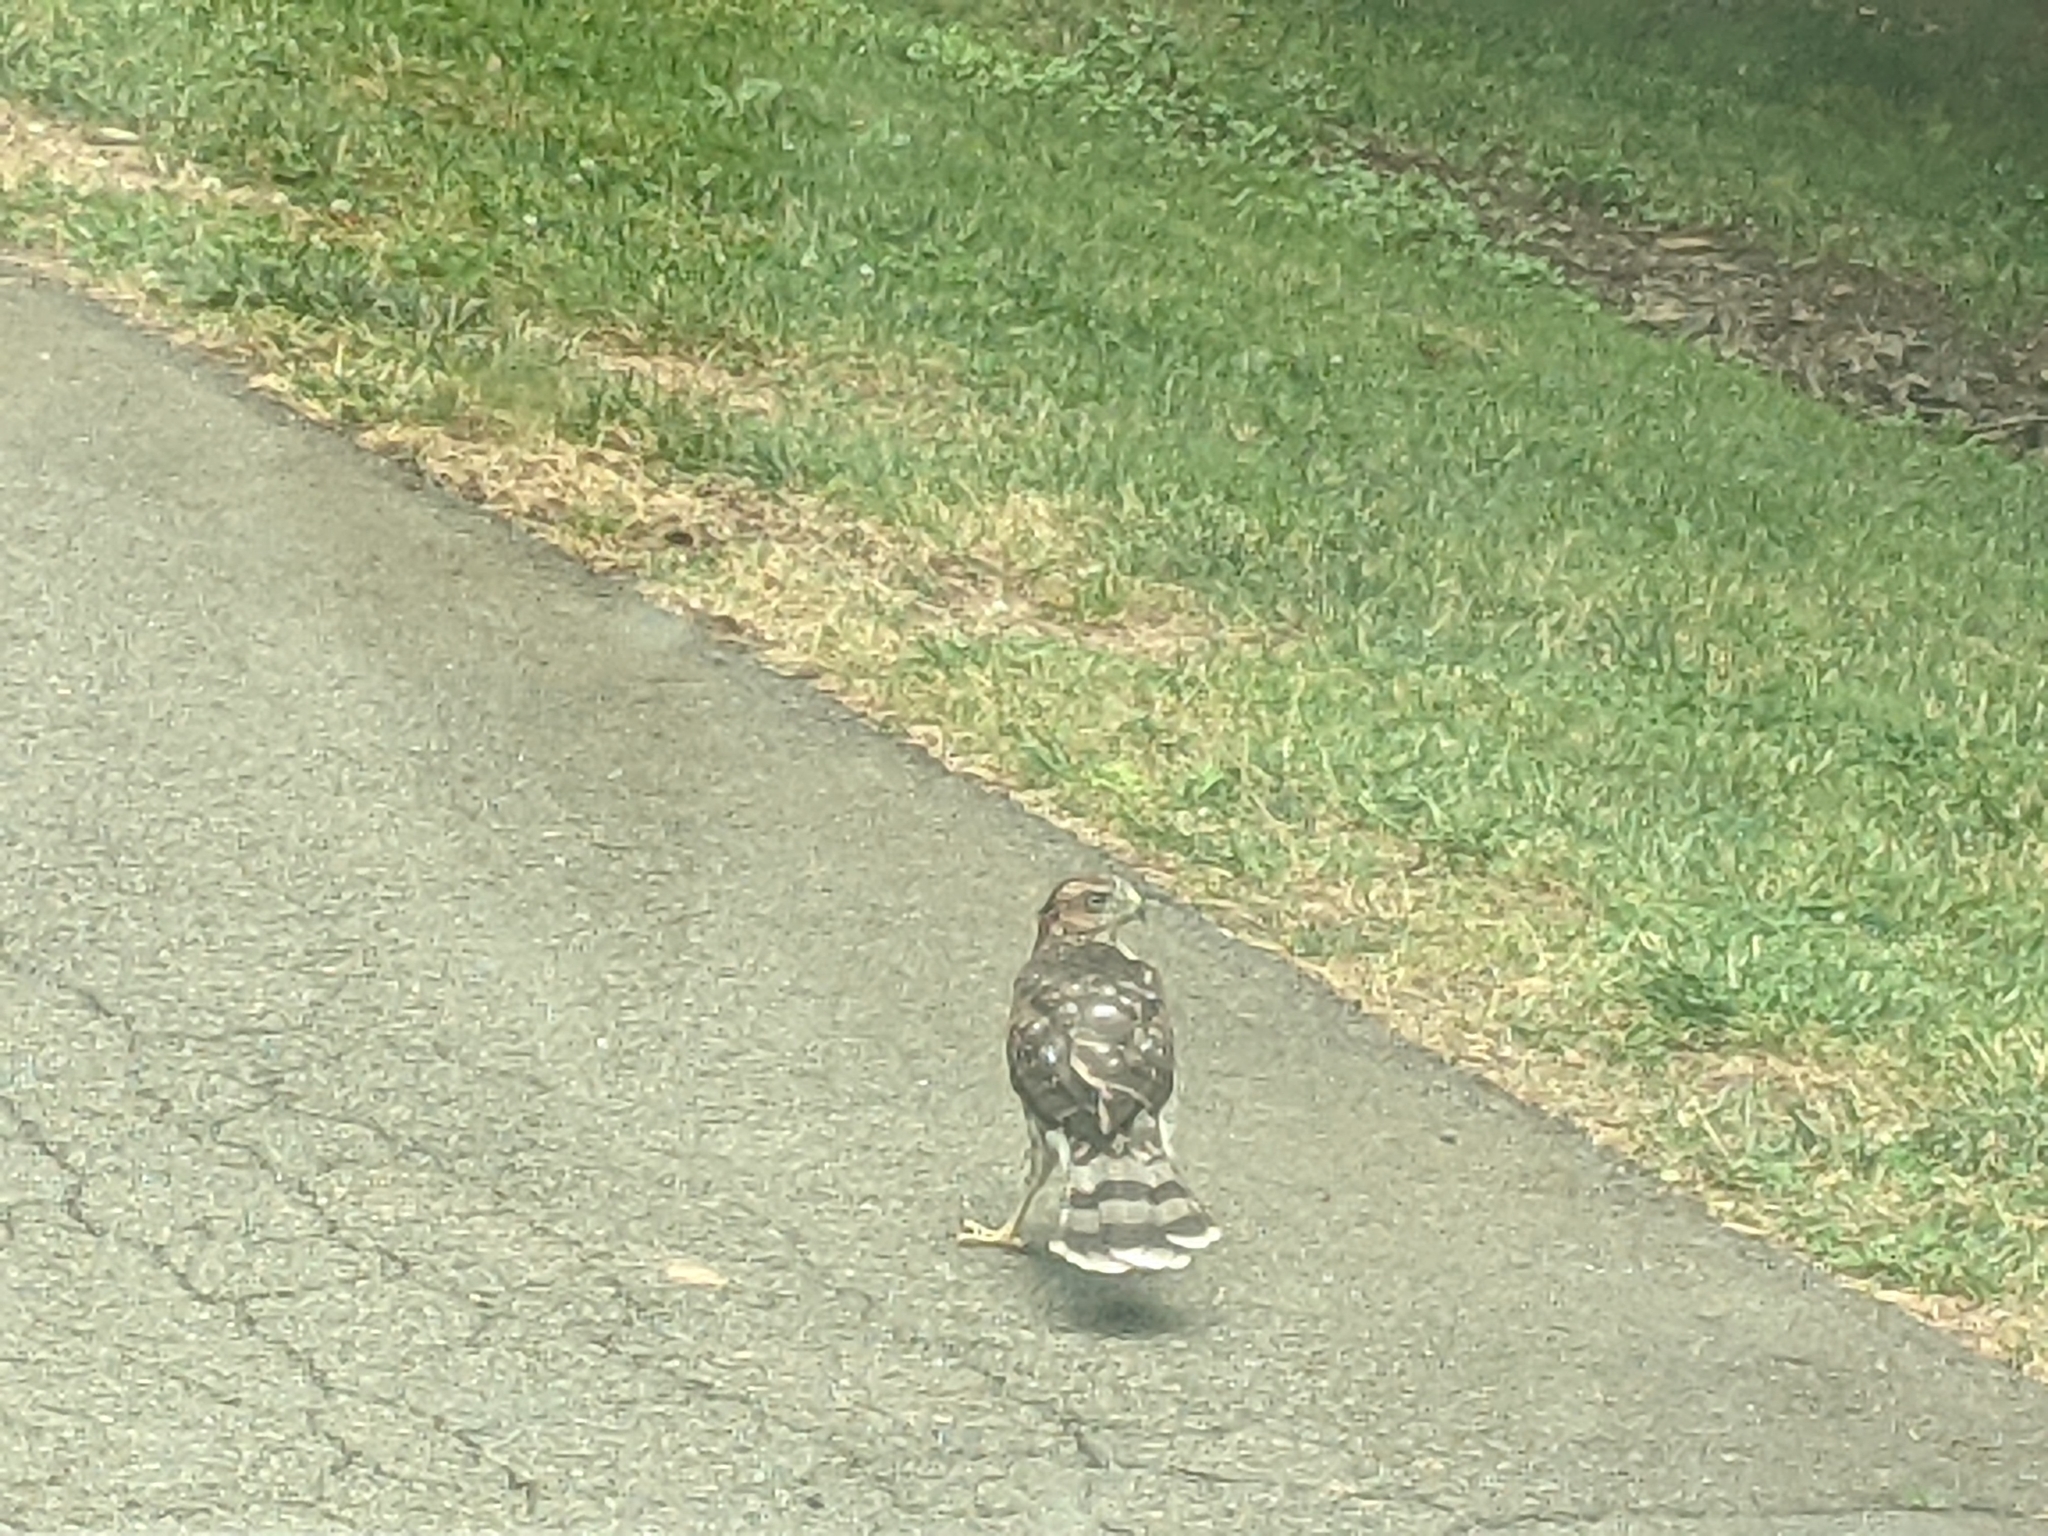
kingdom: Animalia
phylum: Chordata
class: Aves
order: Accipitriformes
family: Accipitridae
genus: Accipiter
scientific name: Accipiter cooperii
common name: Cooper's hawk
